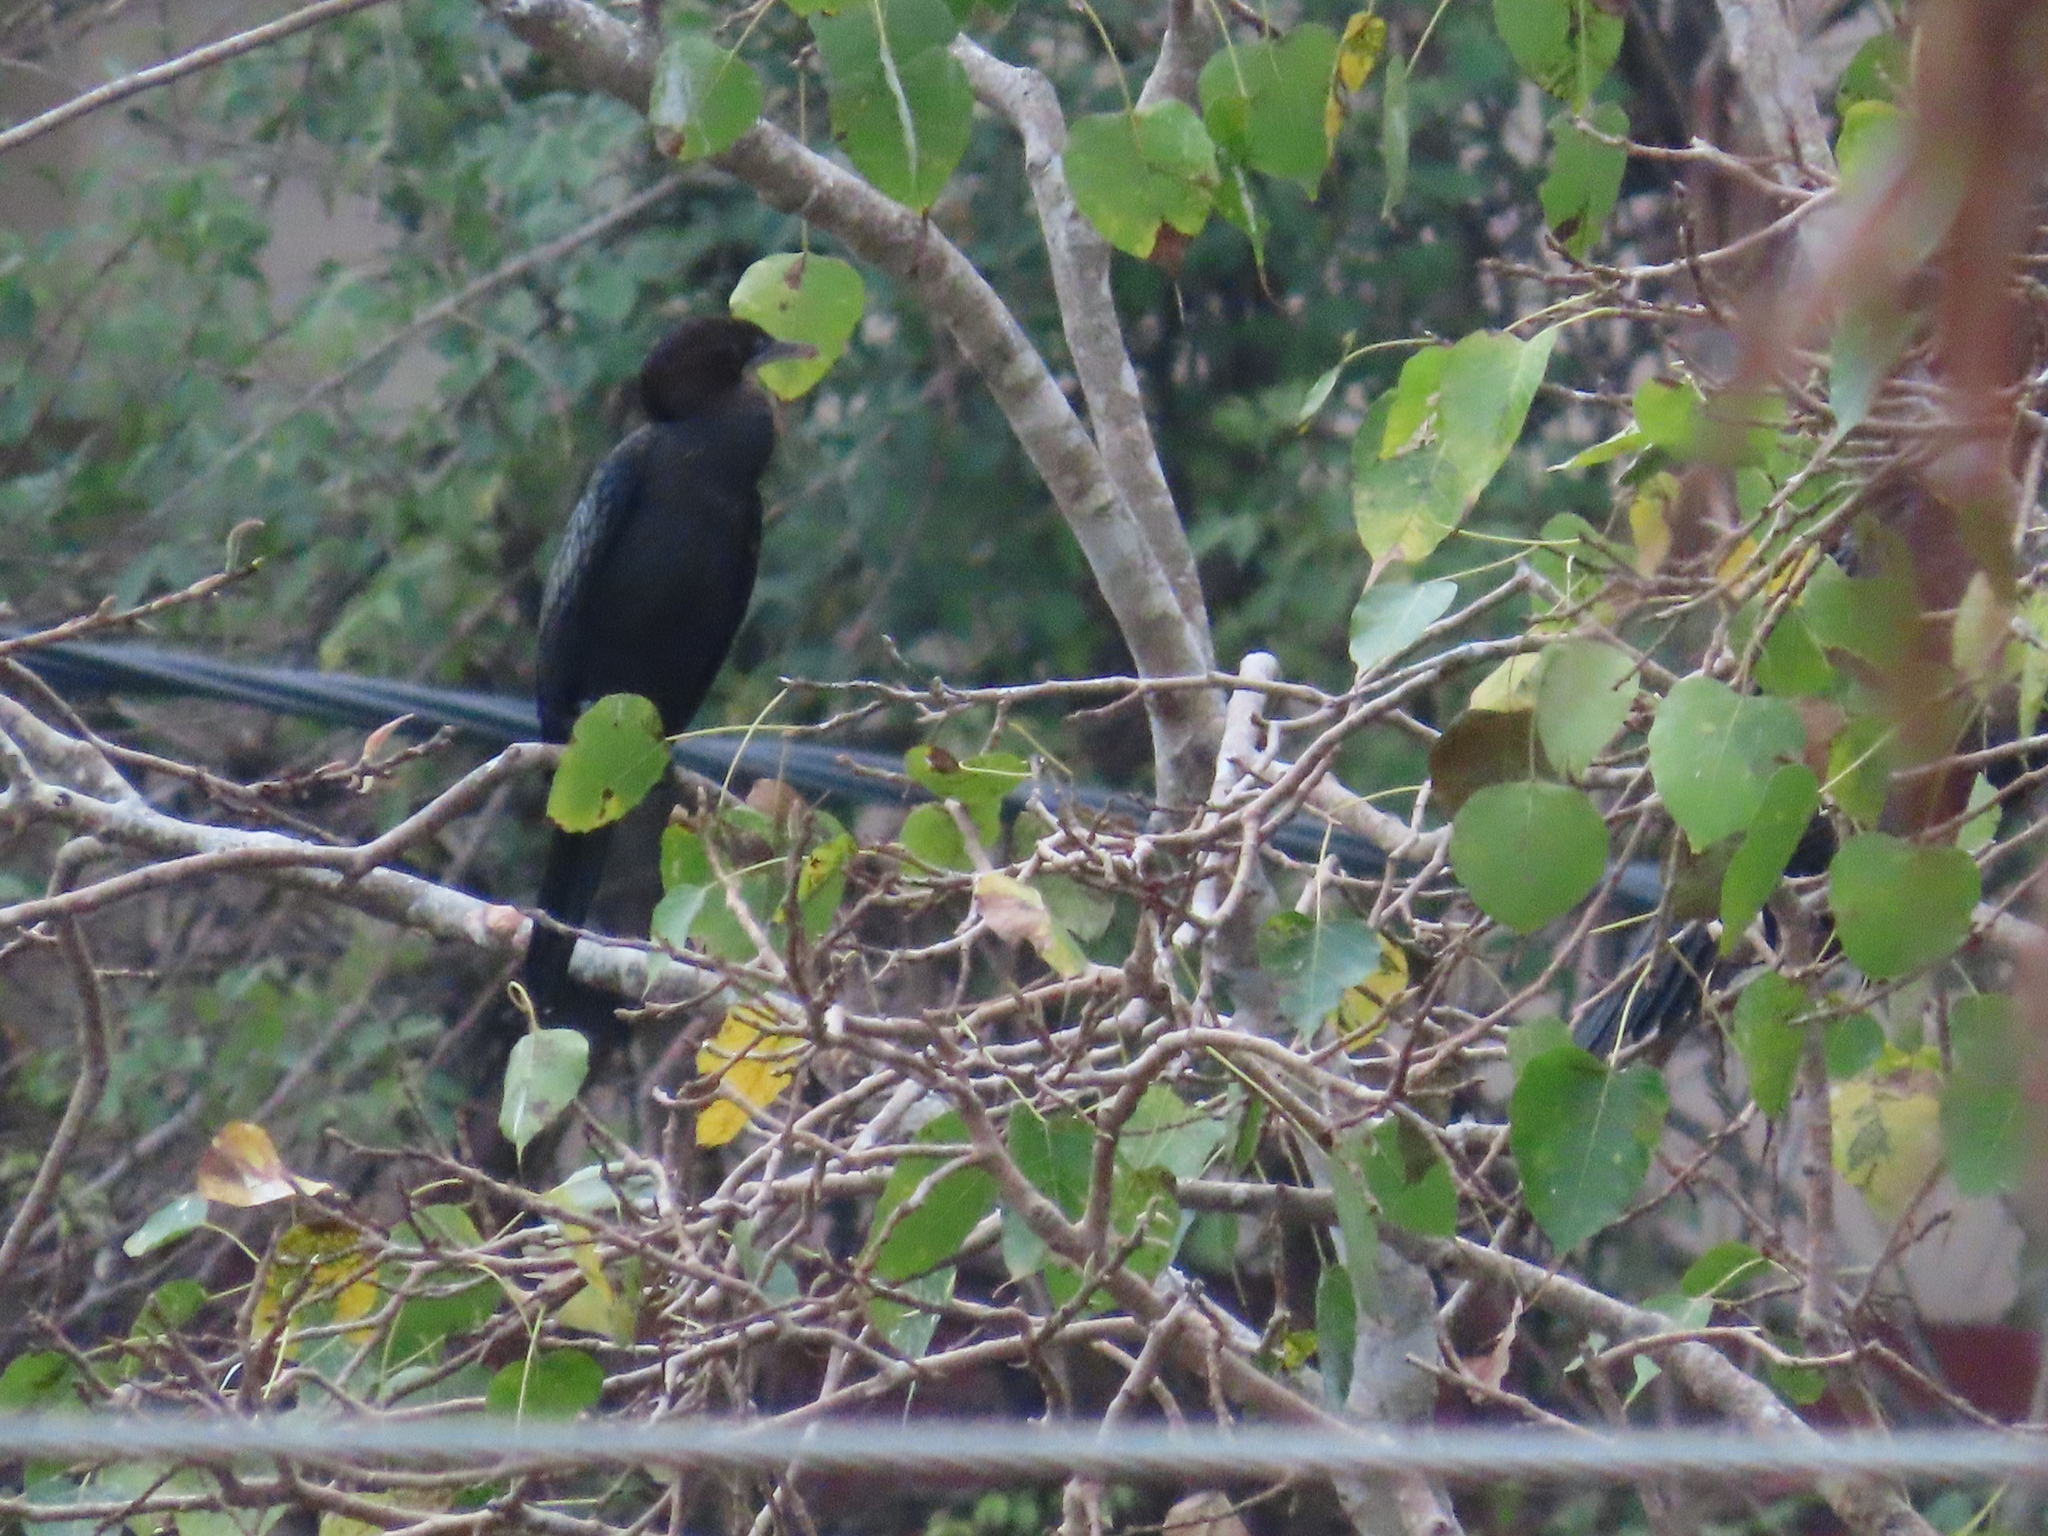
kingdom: Animalia
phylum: Chordata
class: Aves
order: Suliformes
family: Phalacrocoracidae
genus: Microcarbo
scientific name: Microcarbo niger
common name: Little cormorant
